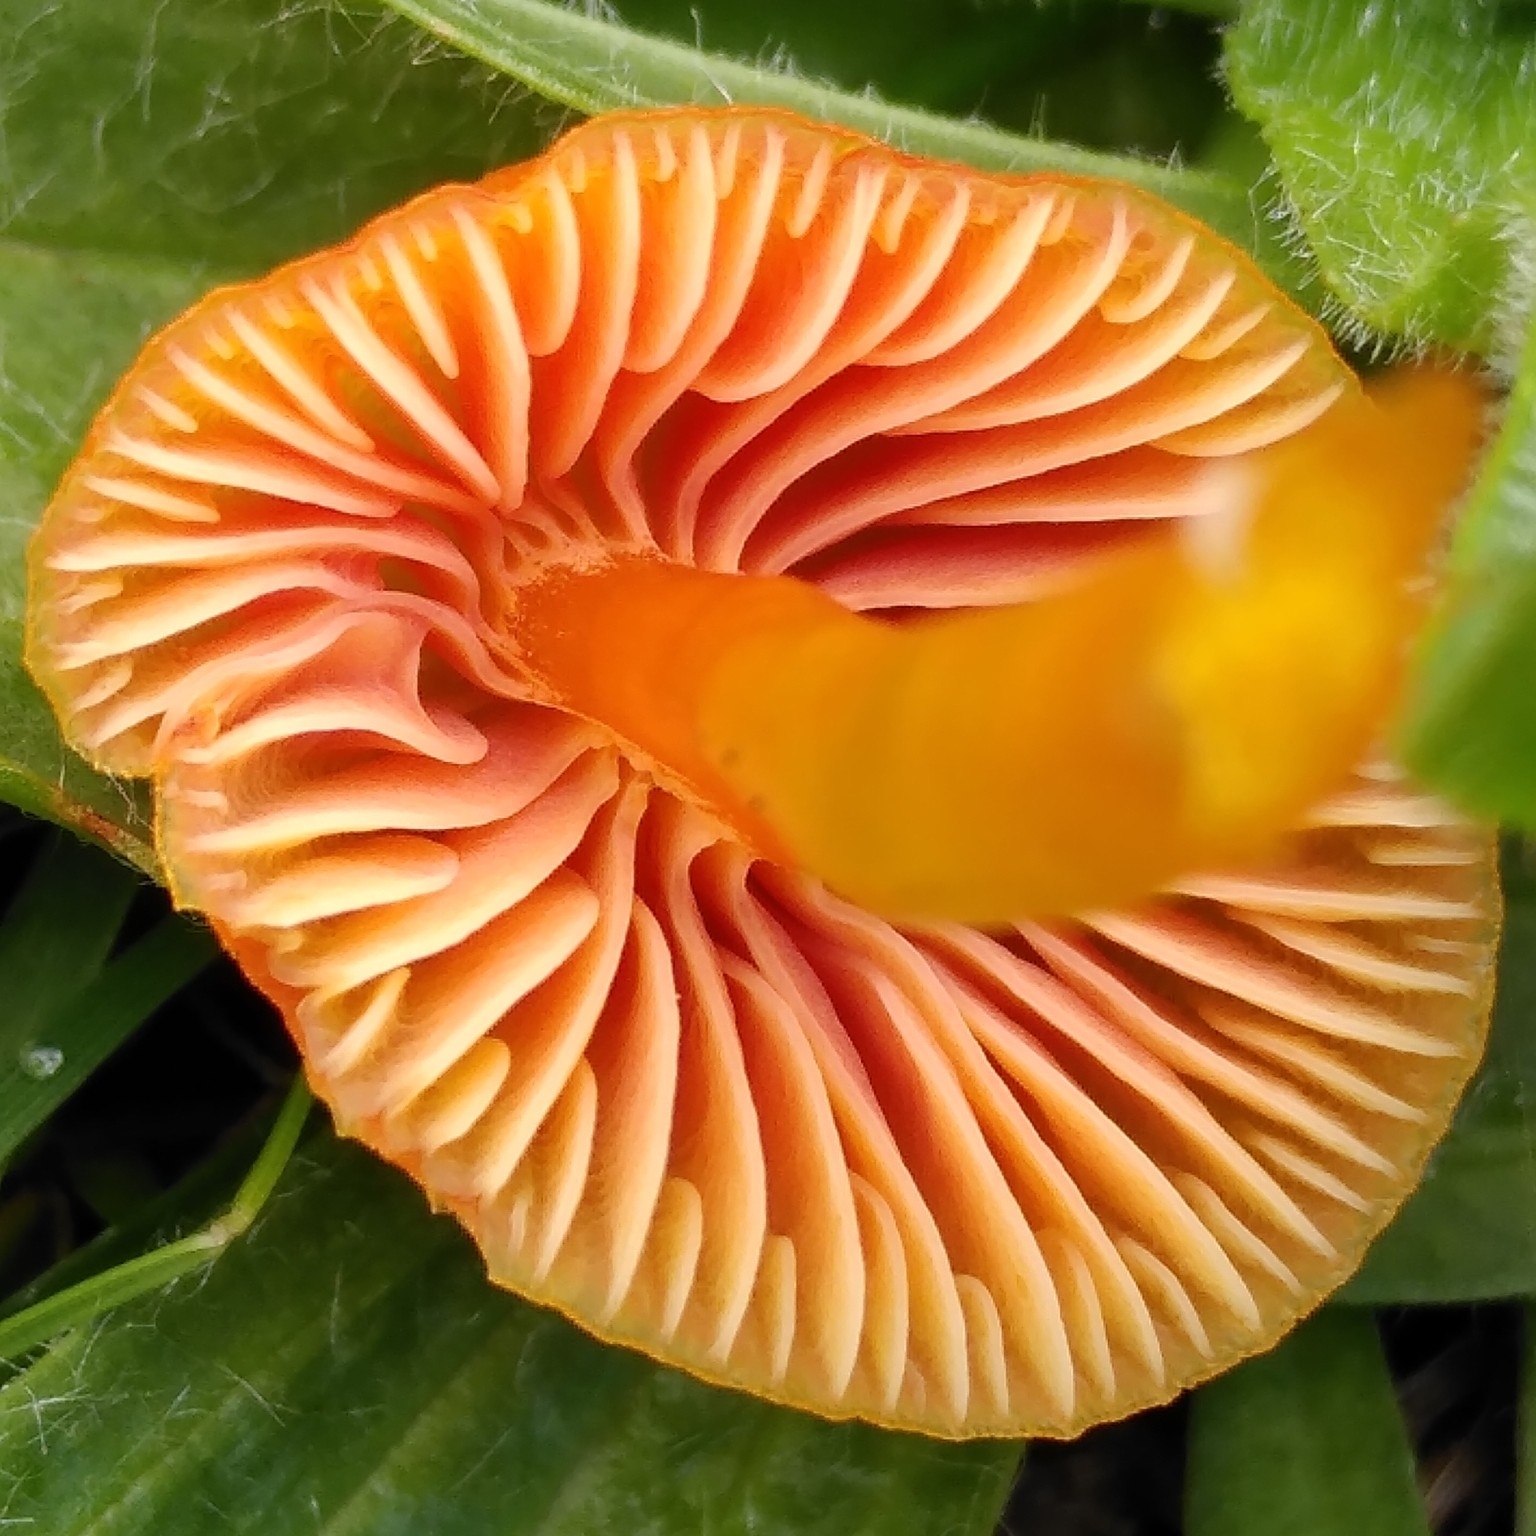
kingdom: Fungi
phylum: Basidiomycota
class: Agaricomycetes
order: Agaricales
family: Hygrophoraceae
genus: Hygrocybe
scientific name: Hygrocybe insipida
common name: Spangle waxcap
